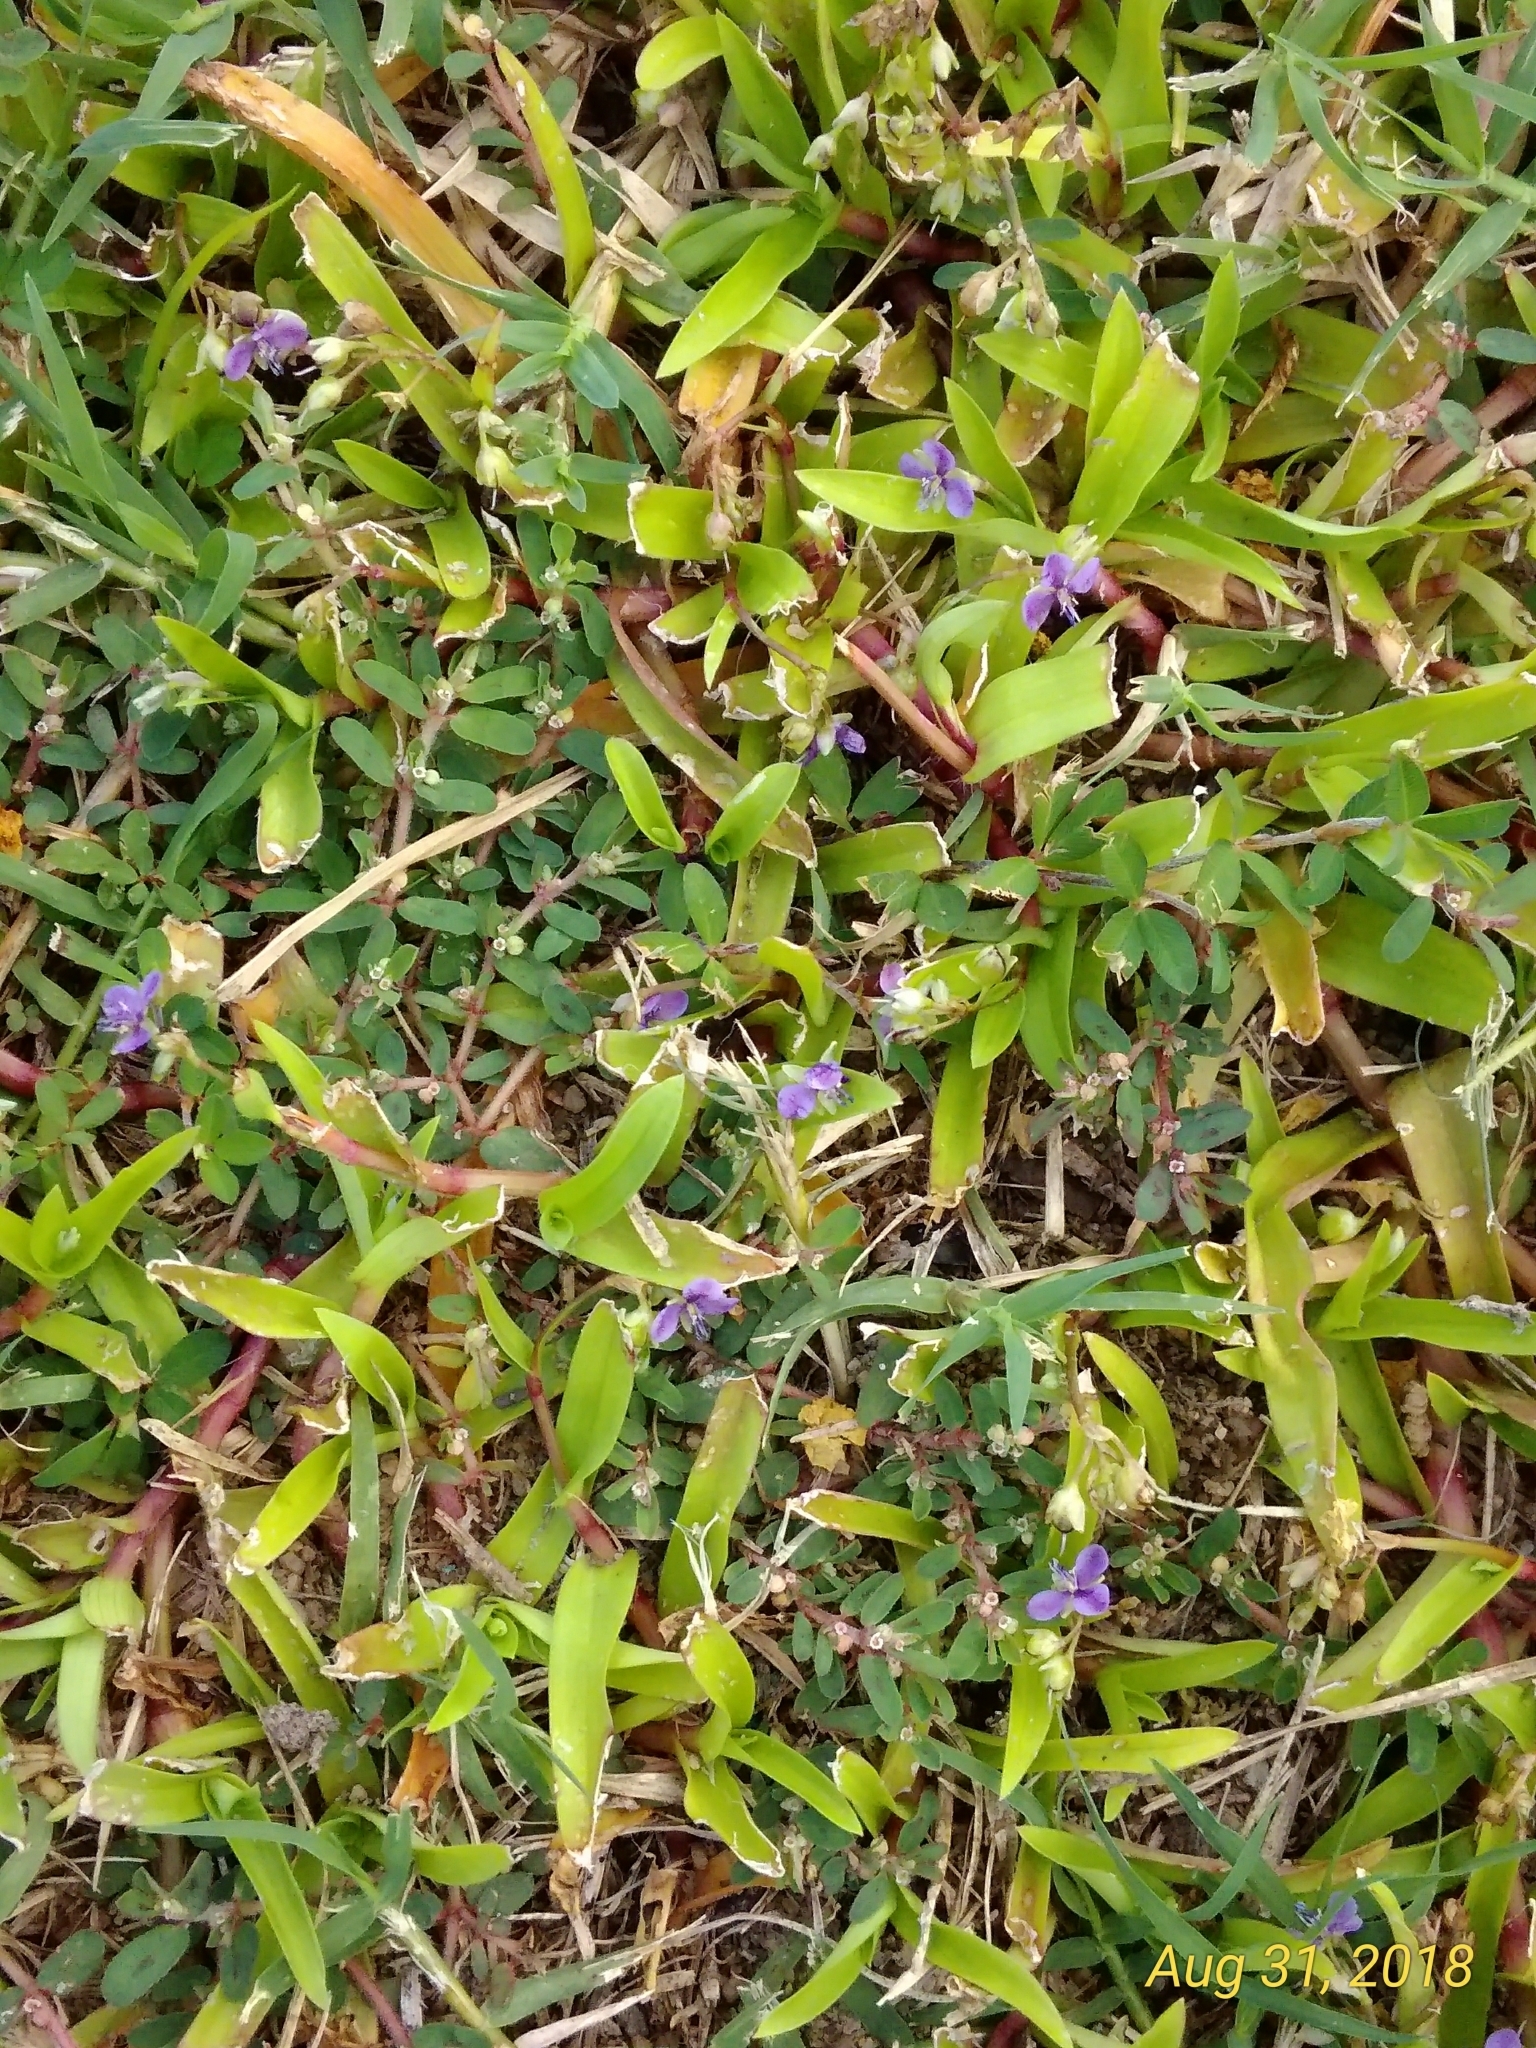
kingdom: Plantae
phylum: Tracheophyta
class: Liliopsida
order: Commelinales
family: Commelinaceae
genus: Murdannia
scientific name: Murdannia nudiflora
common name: Nakedstem dewflower
